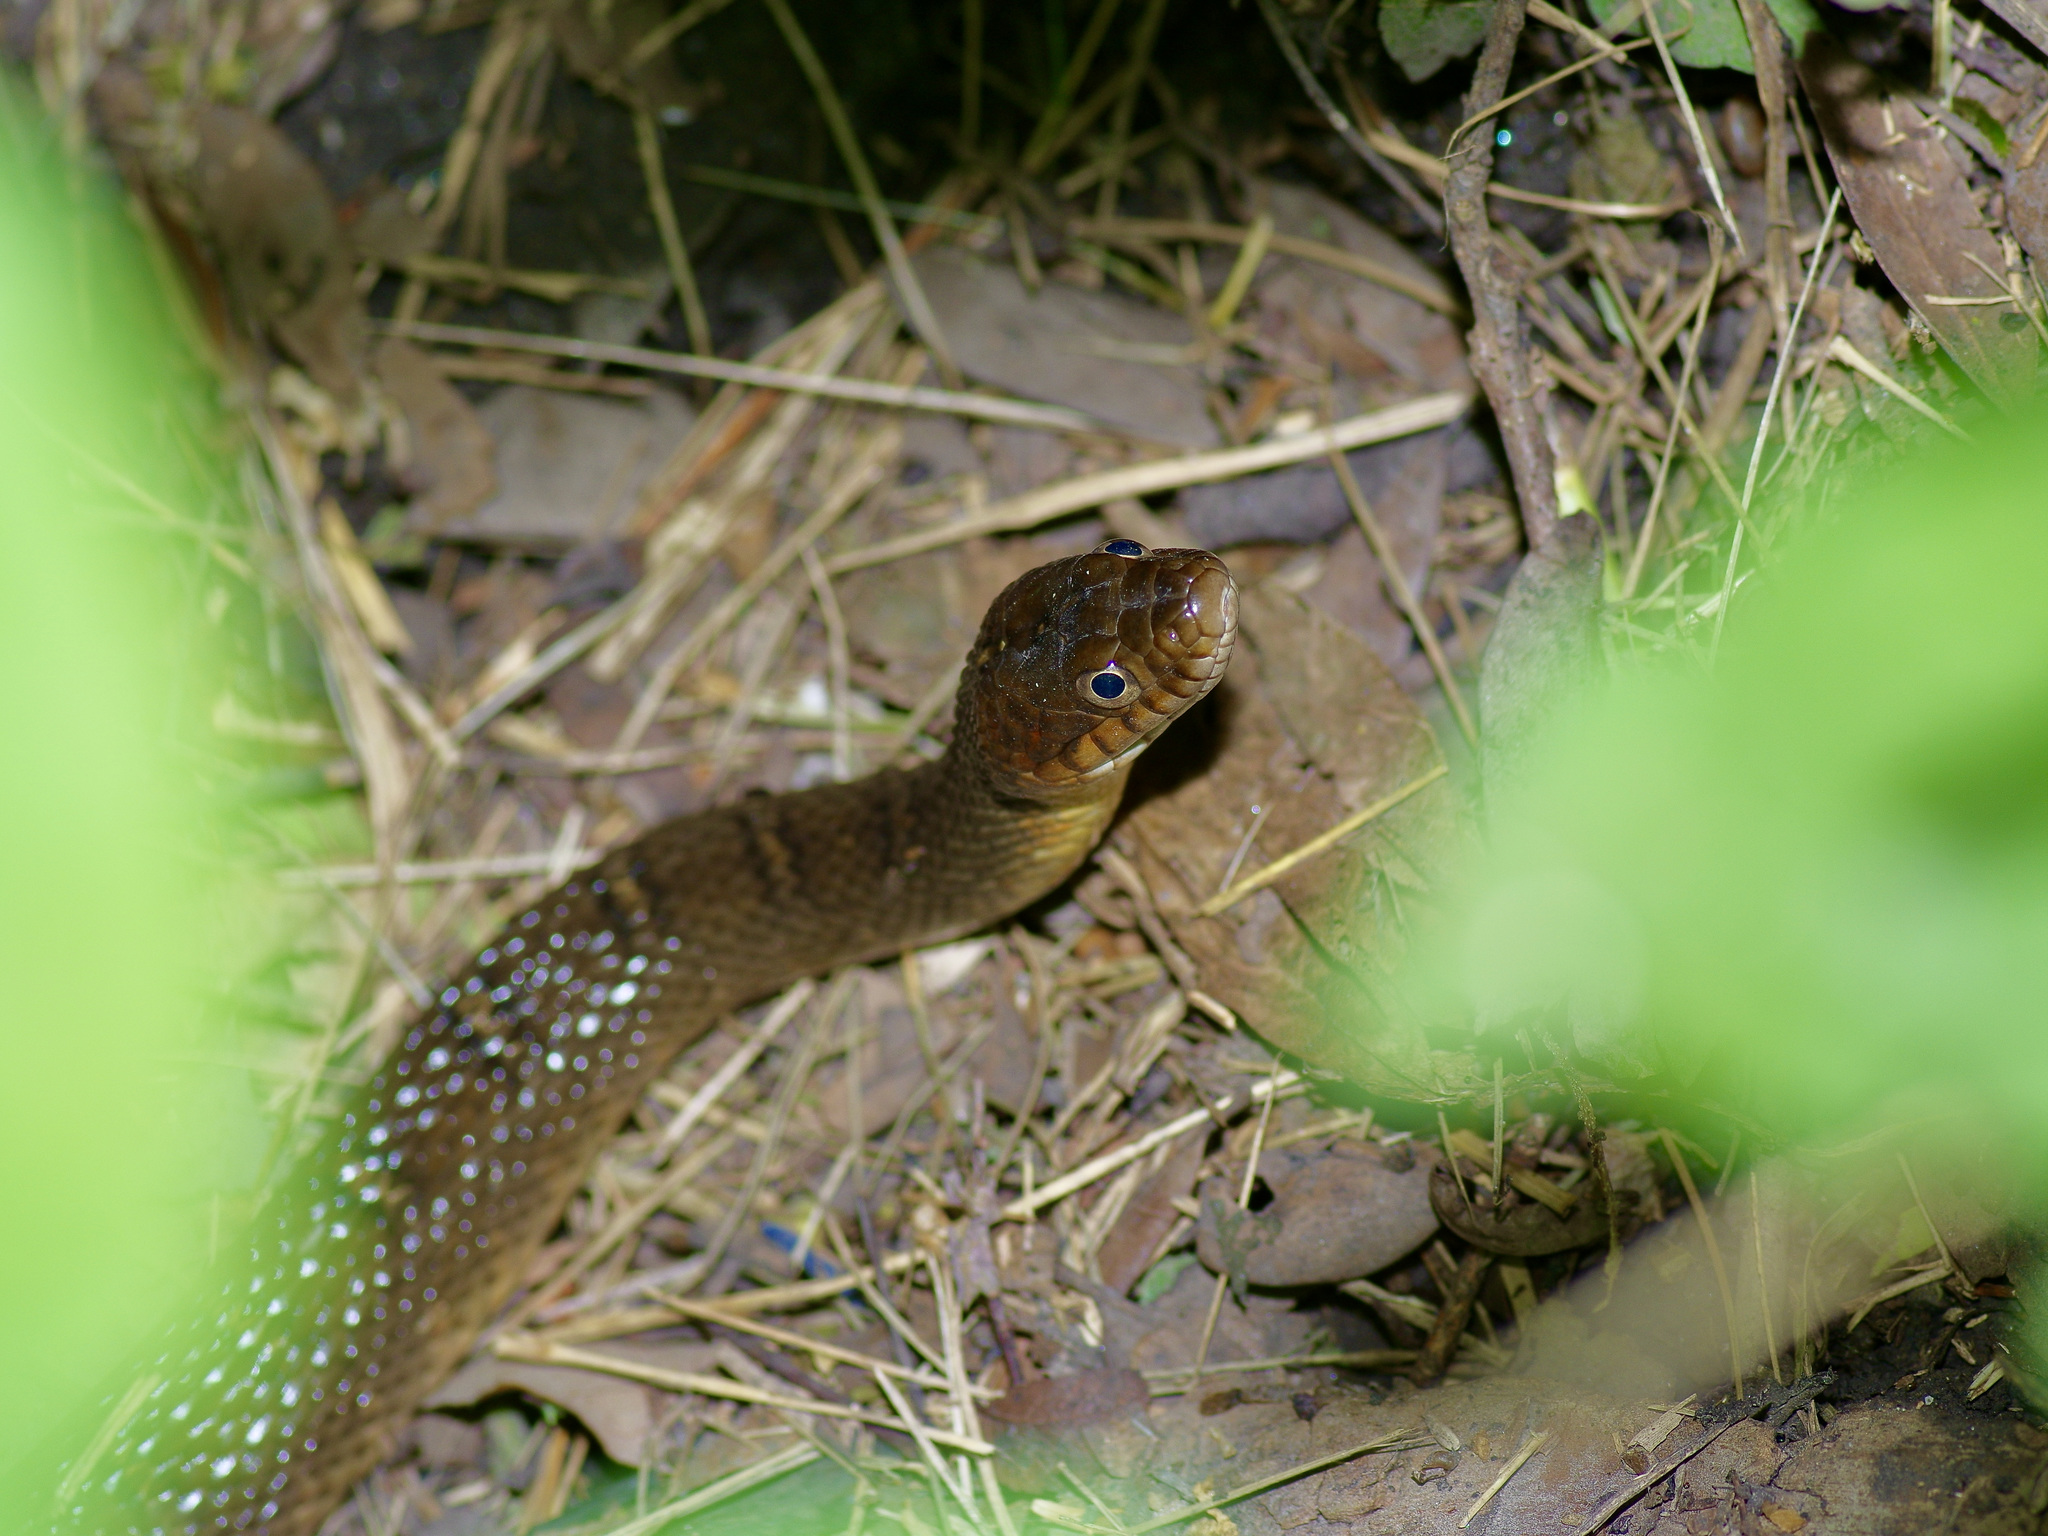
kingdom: Animalia
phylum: Chordata
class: Squamata
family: Colubridae
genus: Nerodia
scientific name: Nerodia erythrogaster
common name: Plainbelly water snake
